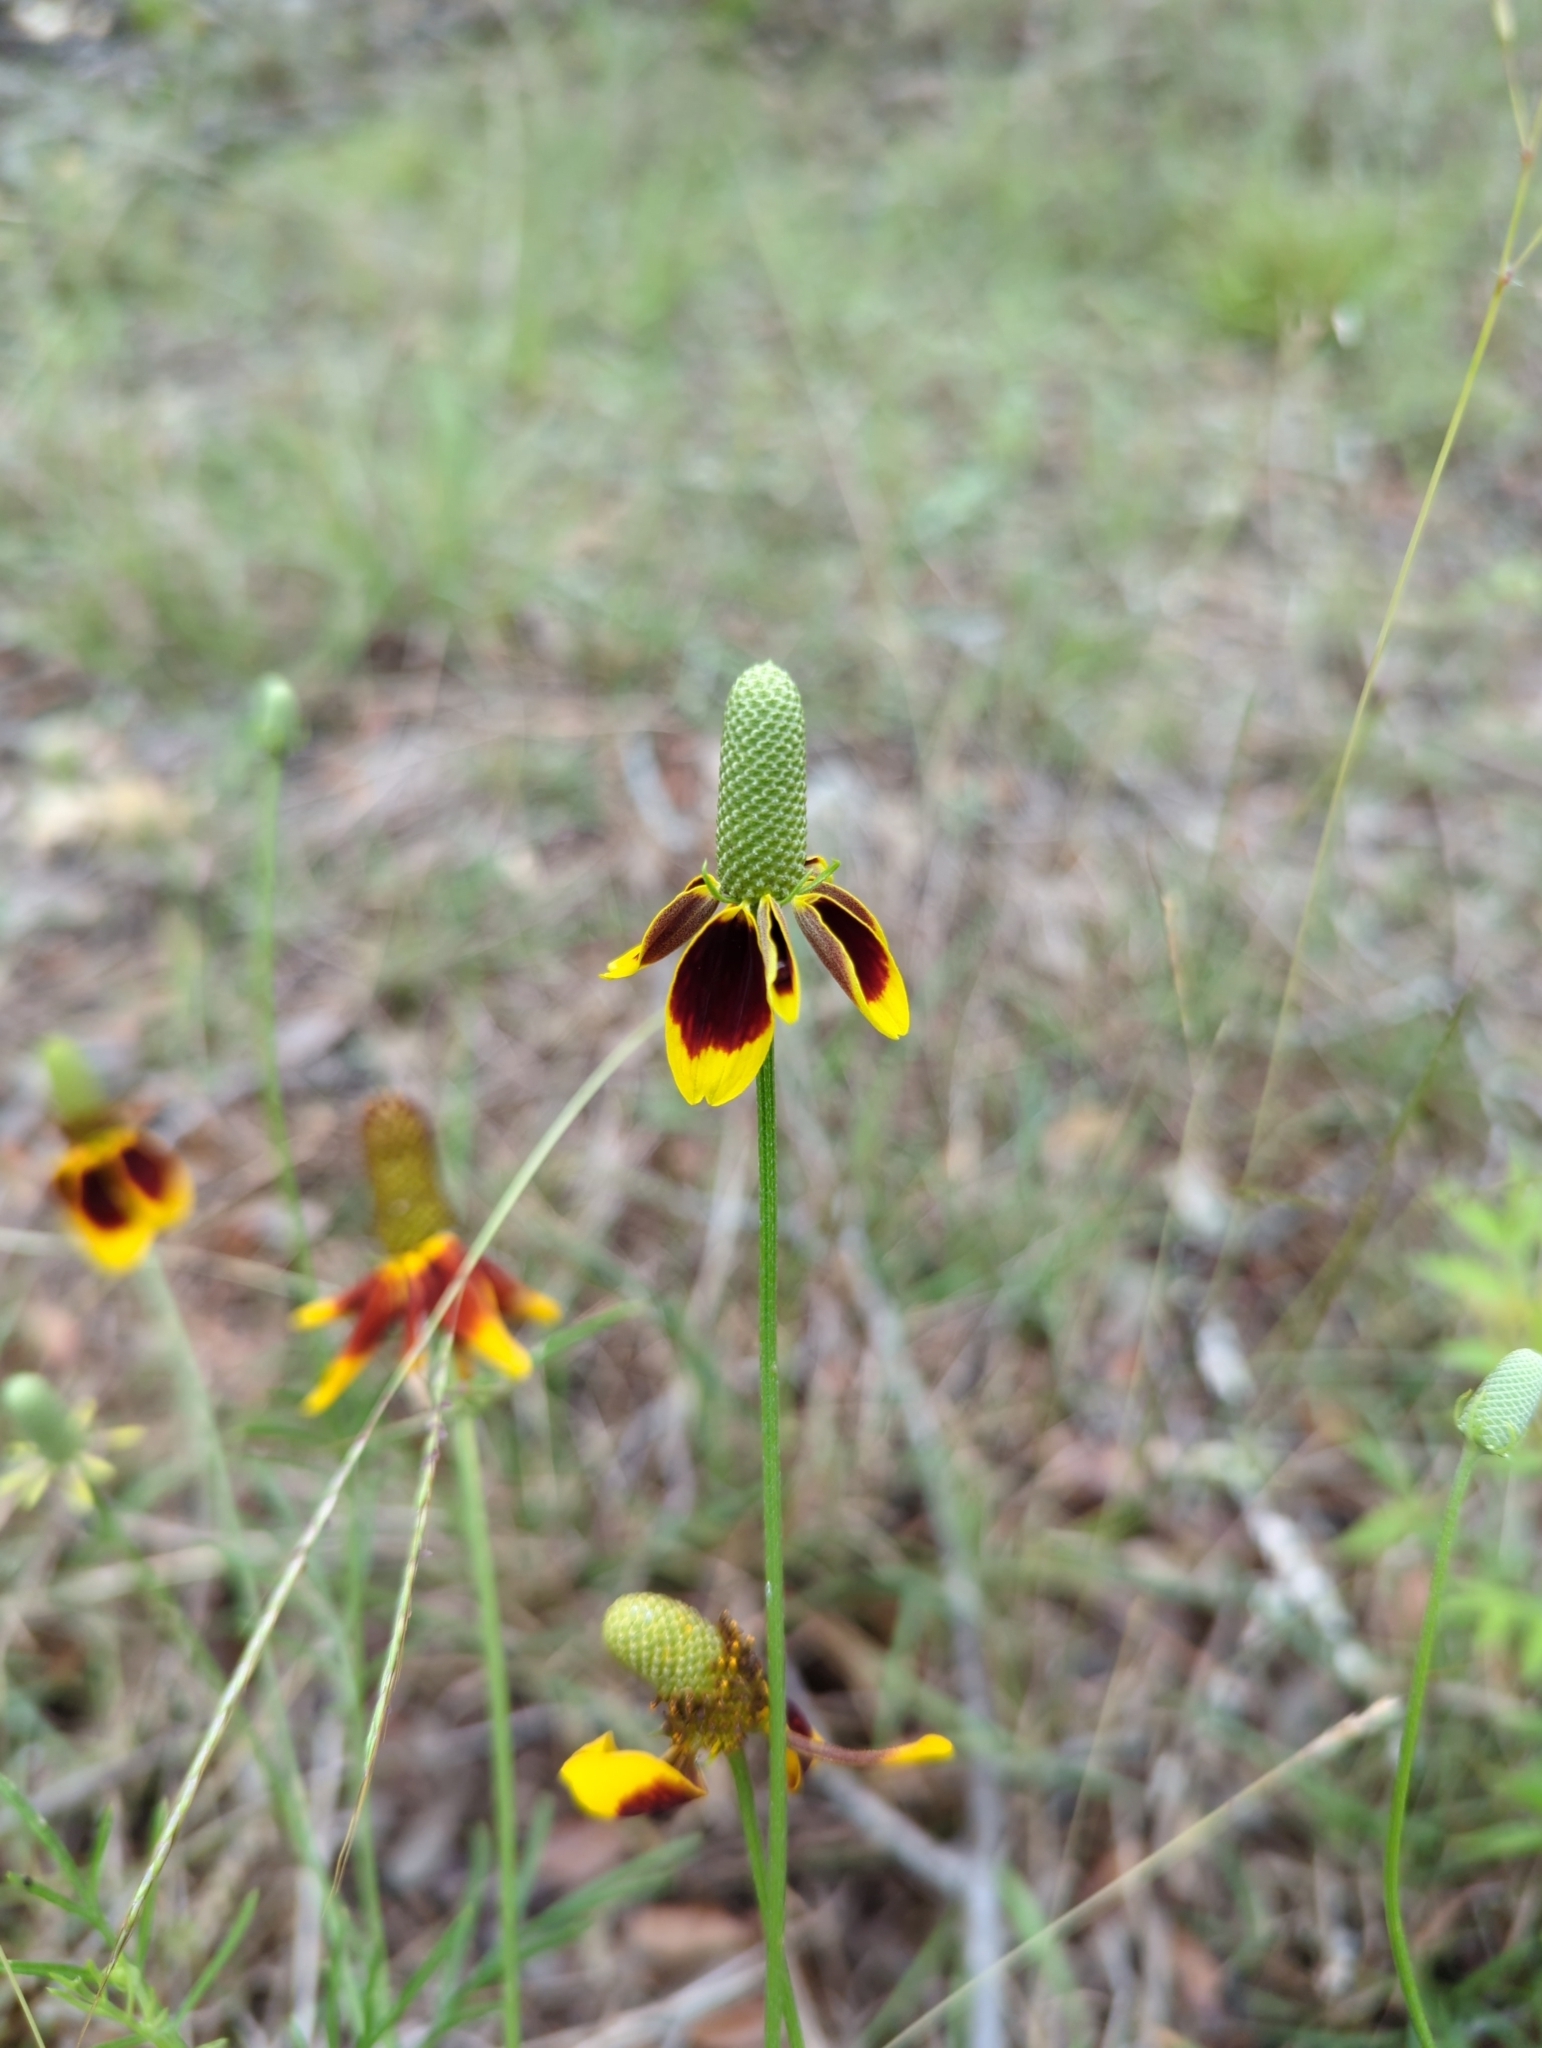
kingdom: Plantae
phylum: Tracheophyta
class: Magnoliopsida
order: Asterales
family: Asteraceae
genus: Ratibida
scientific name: Ratibida columnifera
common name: Prairie coneflower
